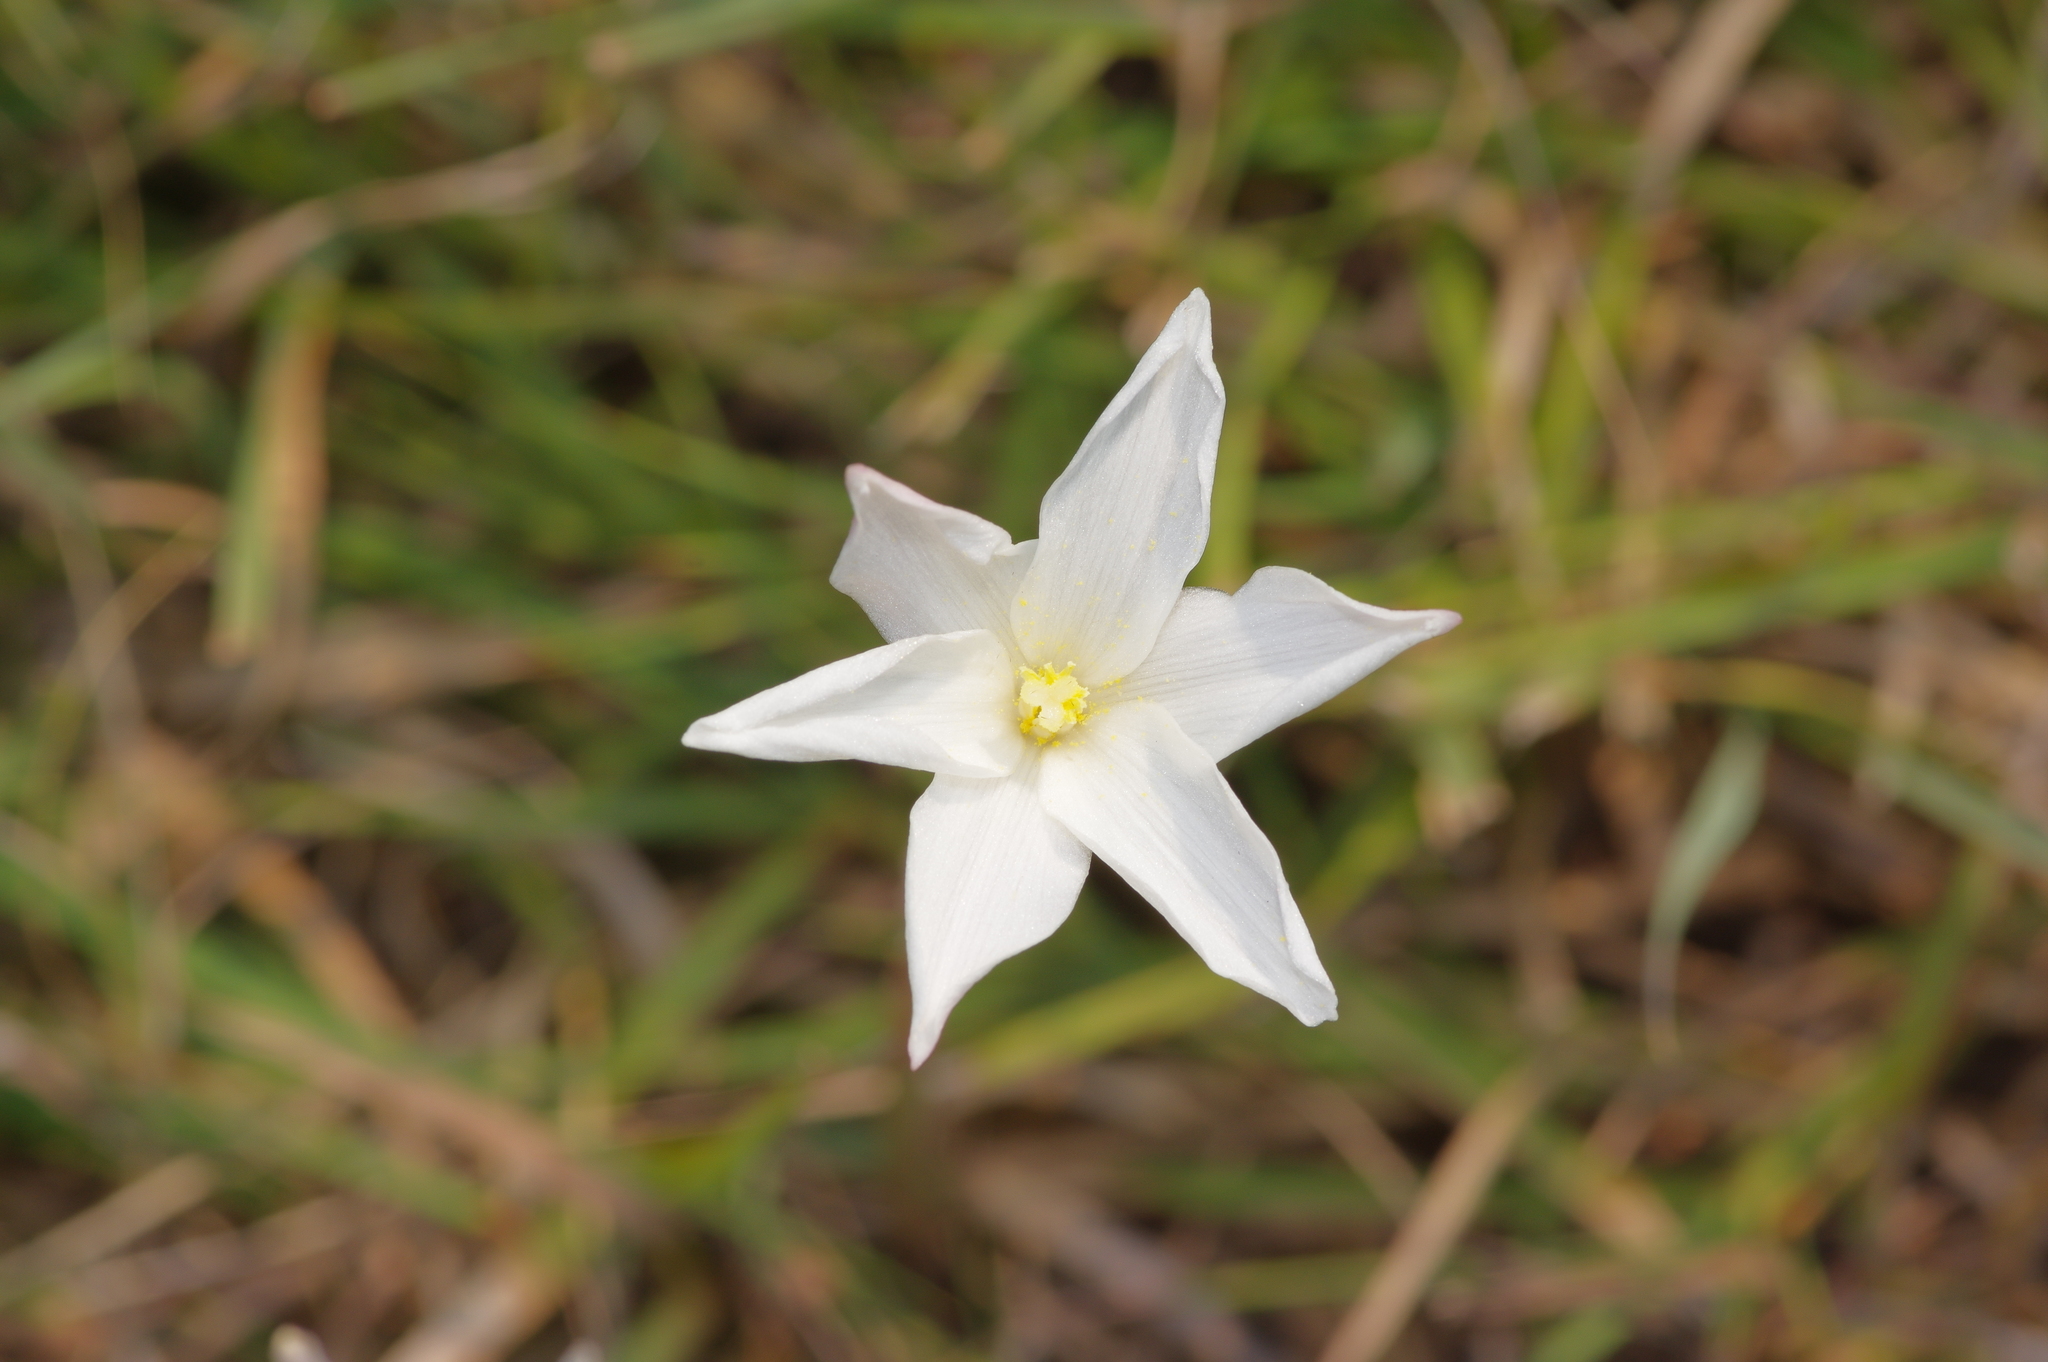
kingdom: Plantae
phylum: Tracheophyta
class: Liliopsida
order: Asparagales
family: Amaryllidaceae
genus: Zephyranthes
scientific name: Zephyranthes chlorosolen
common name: Evening rain-lily
